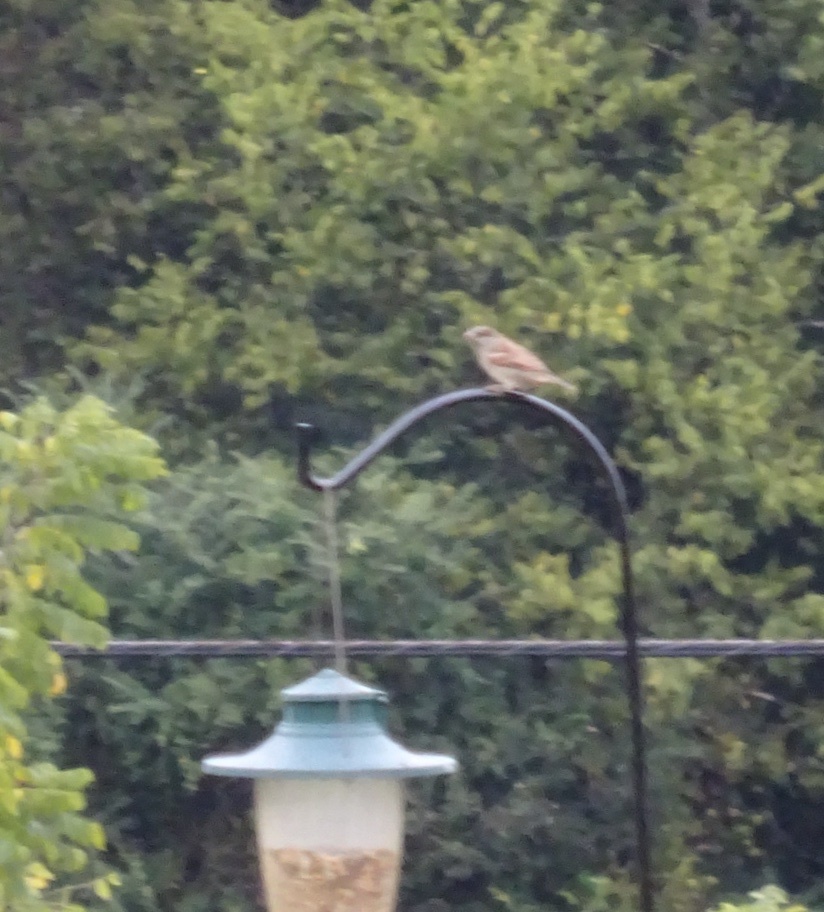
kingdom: Animalia
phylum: Chordata
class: Aves
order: Passeriformes
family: Passeridae
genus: Passer
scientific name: Passer domesticus
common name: House sparrow
